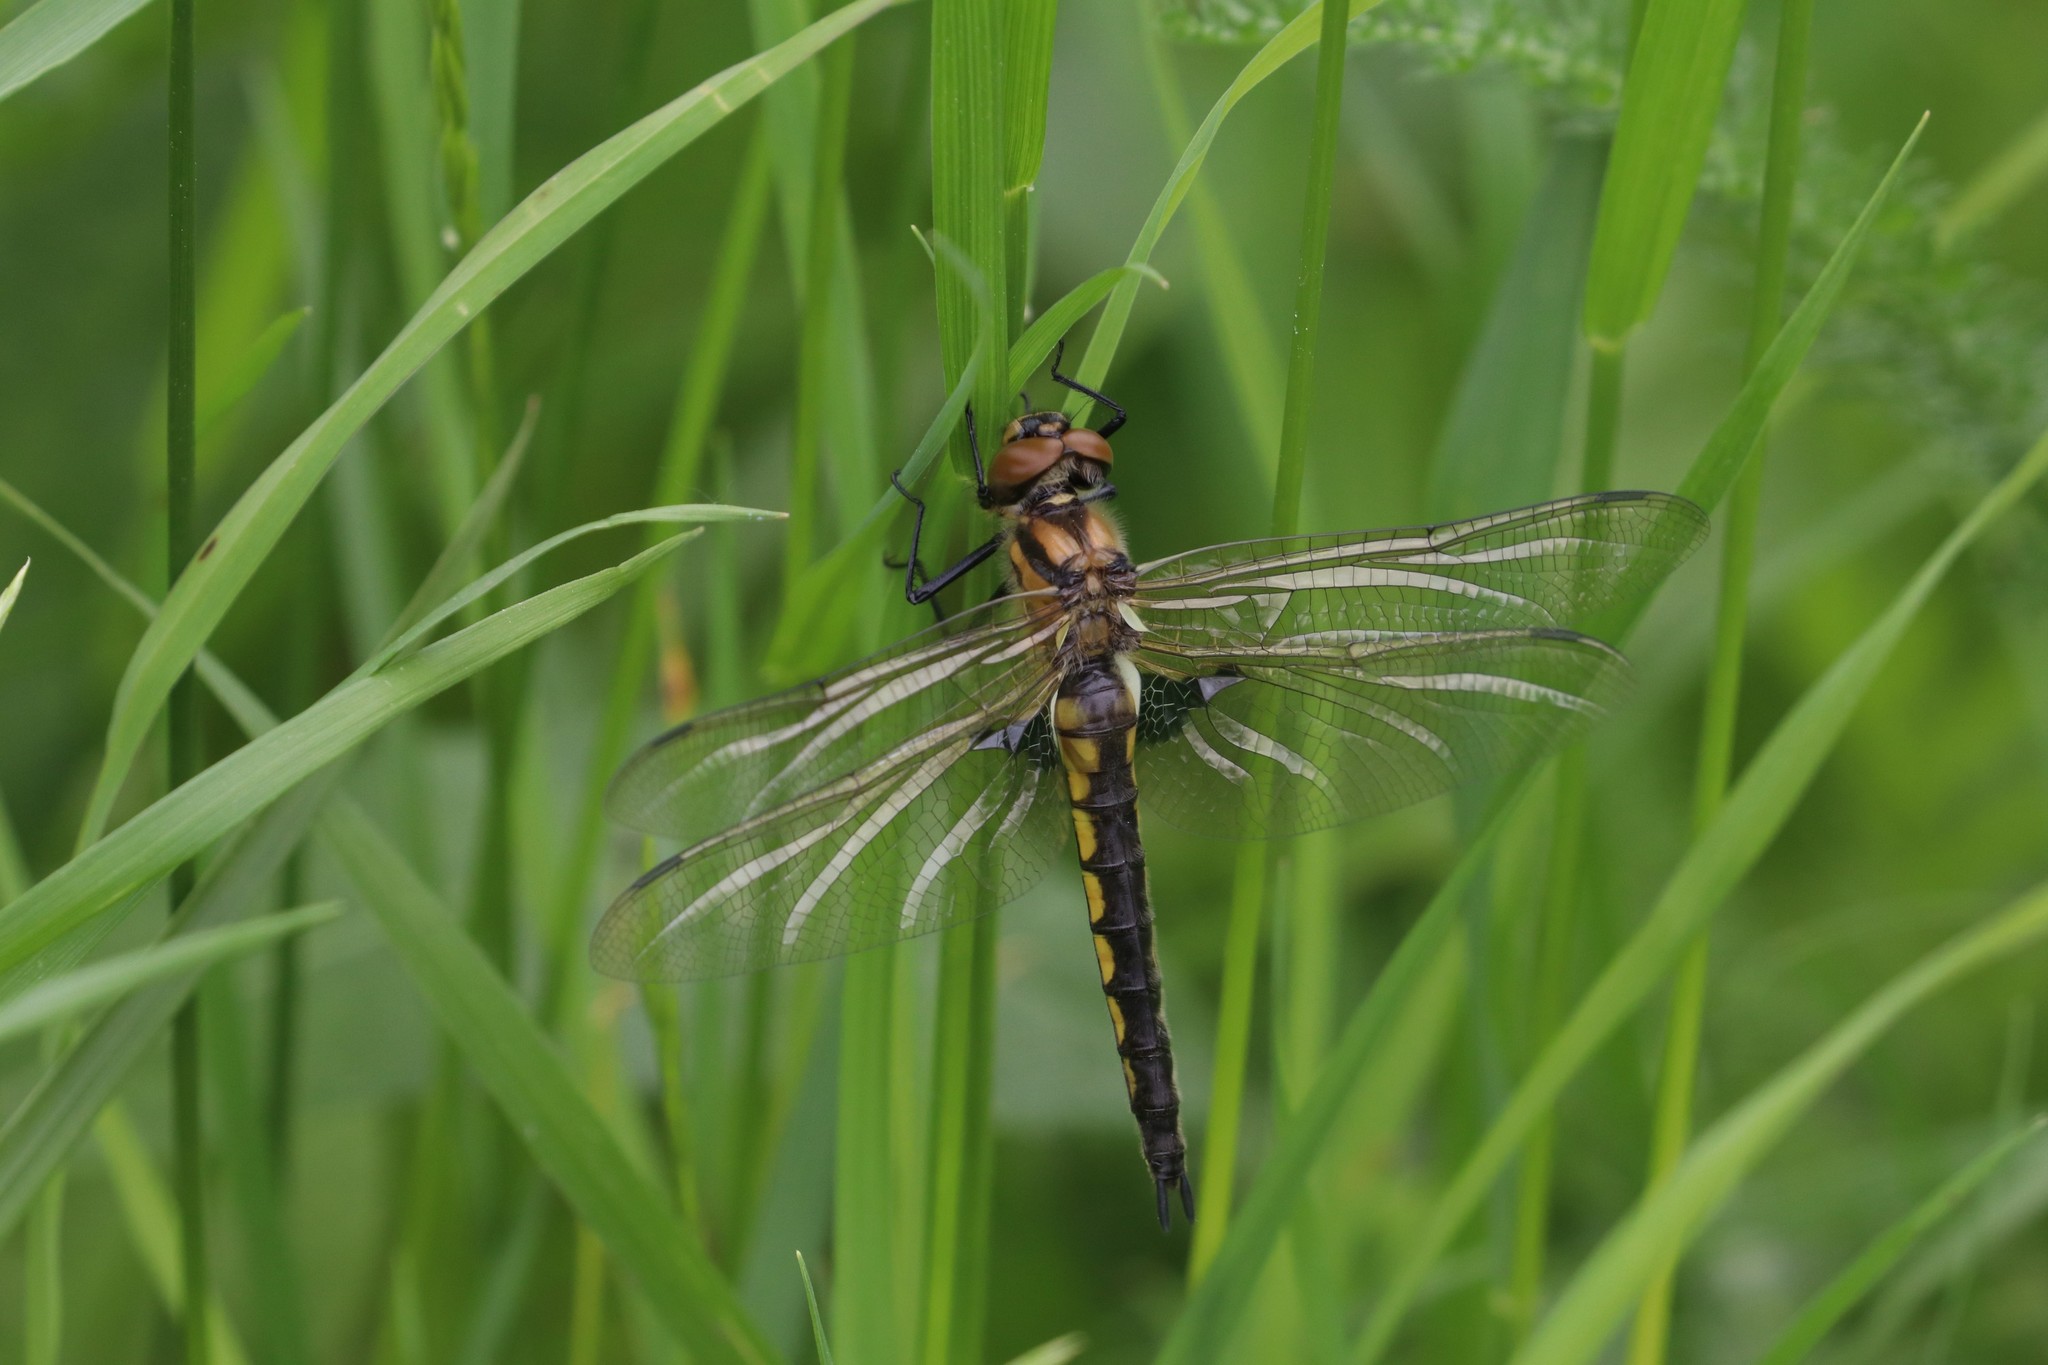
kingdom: Animalia
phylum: Arthropoda
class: Insecta
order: Odonata
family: Corduliidae
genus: Epitheca
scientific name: Epitheca bimaculata
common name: Eurasian baskettail
